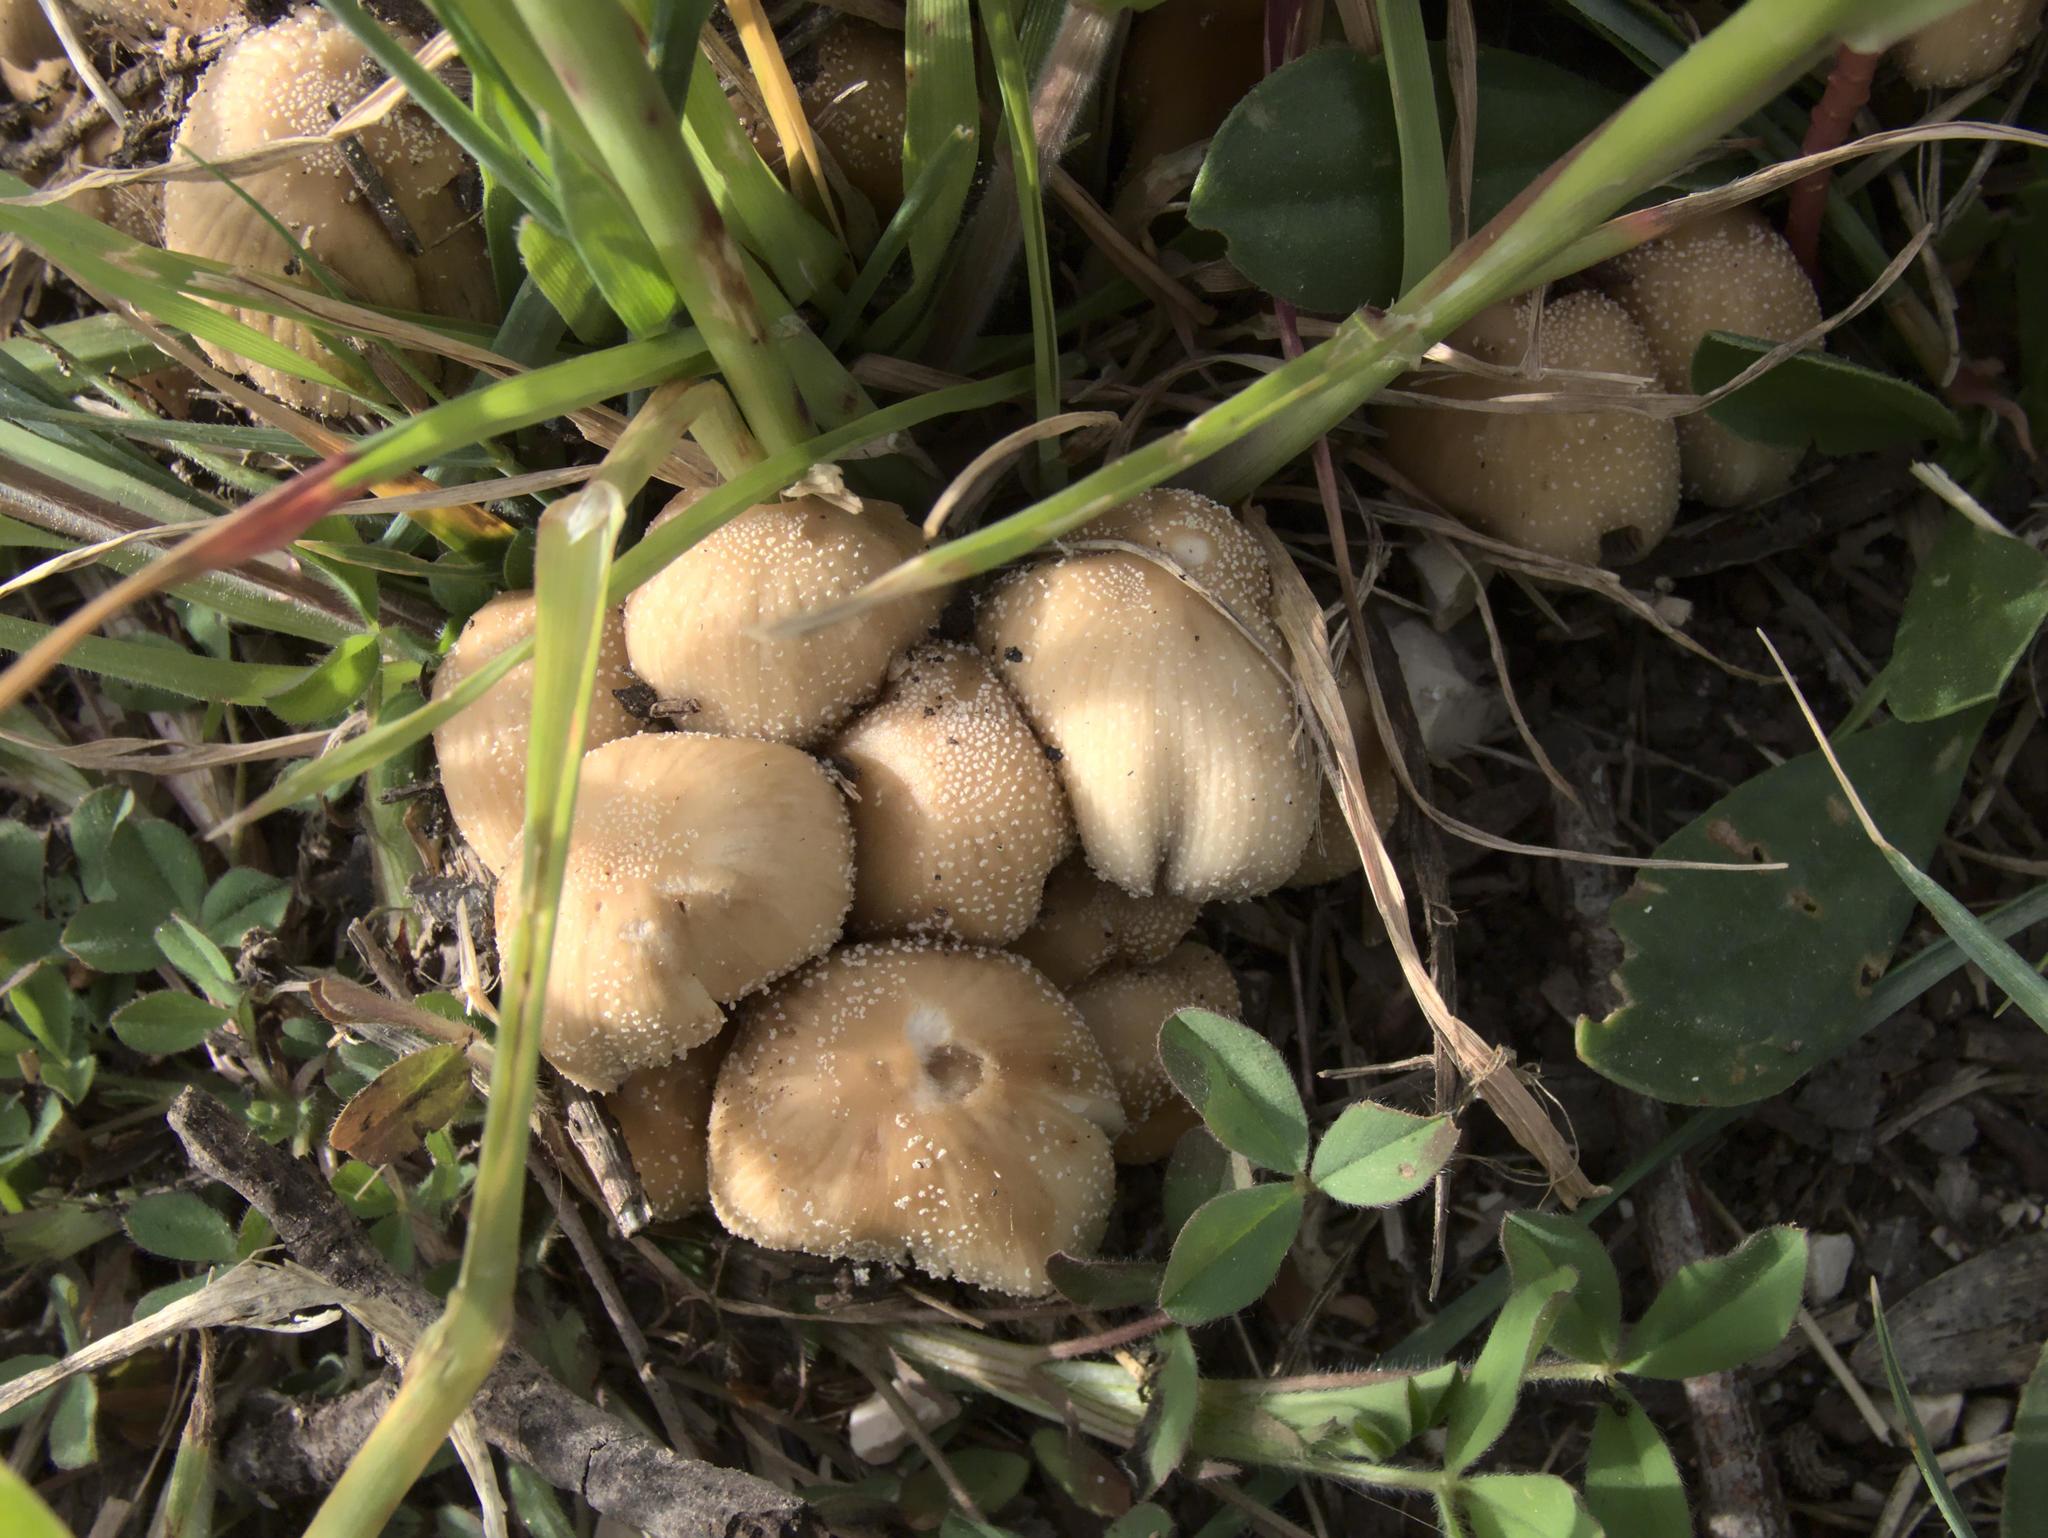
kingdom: Fungi
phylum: Basidiomycota
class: Agaricomycetes
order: Agaricales
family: Psathyrellaceae
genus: Coprinellus
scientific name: Coprinellus micaceus
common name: Glistening ink-cap
